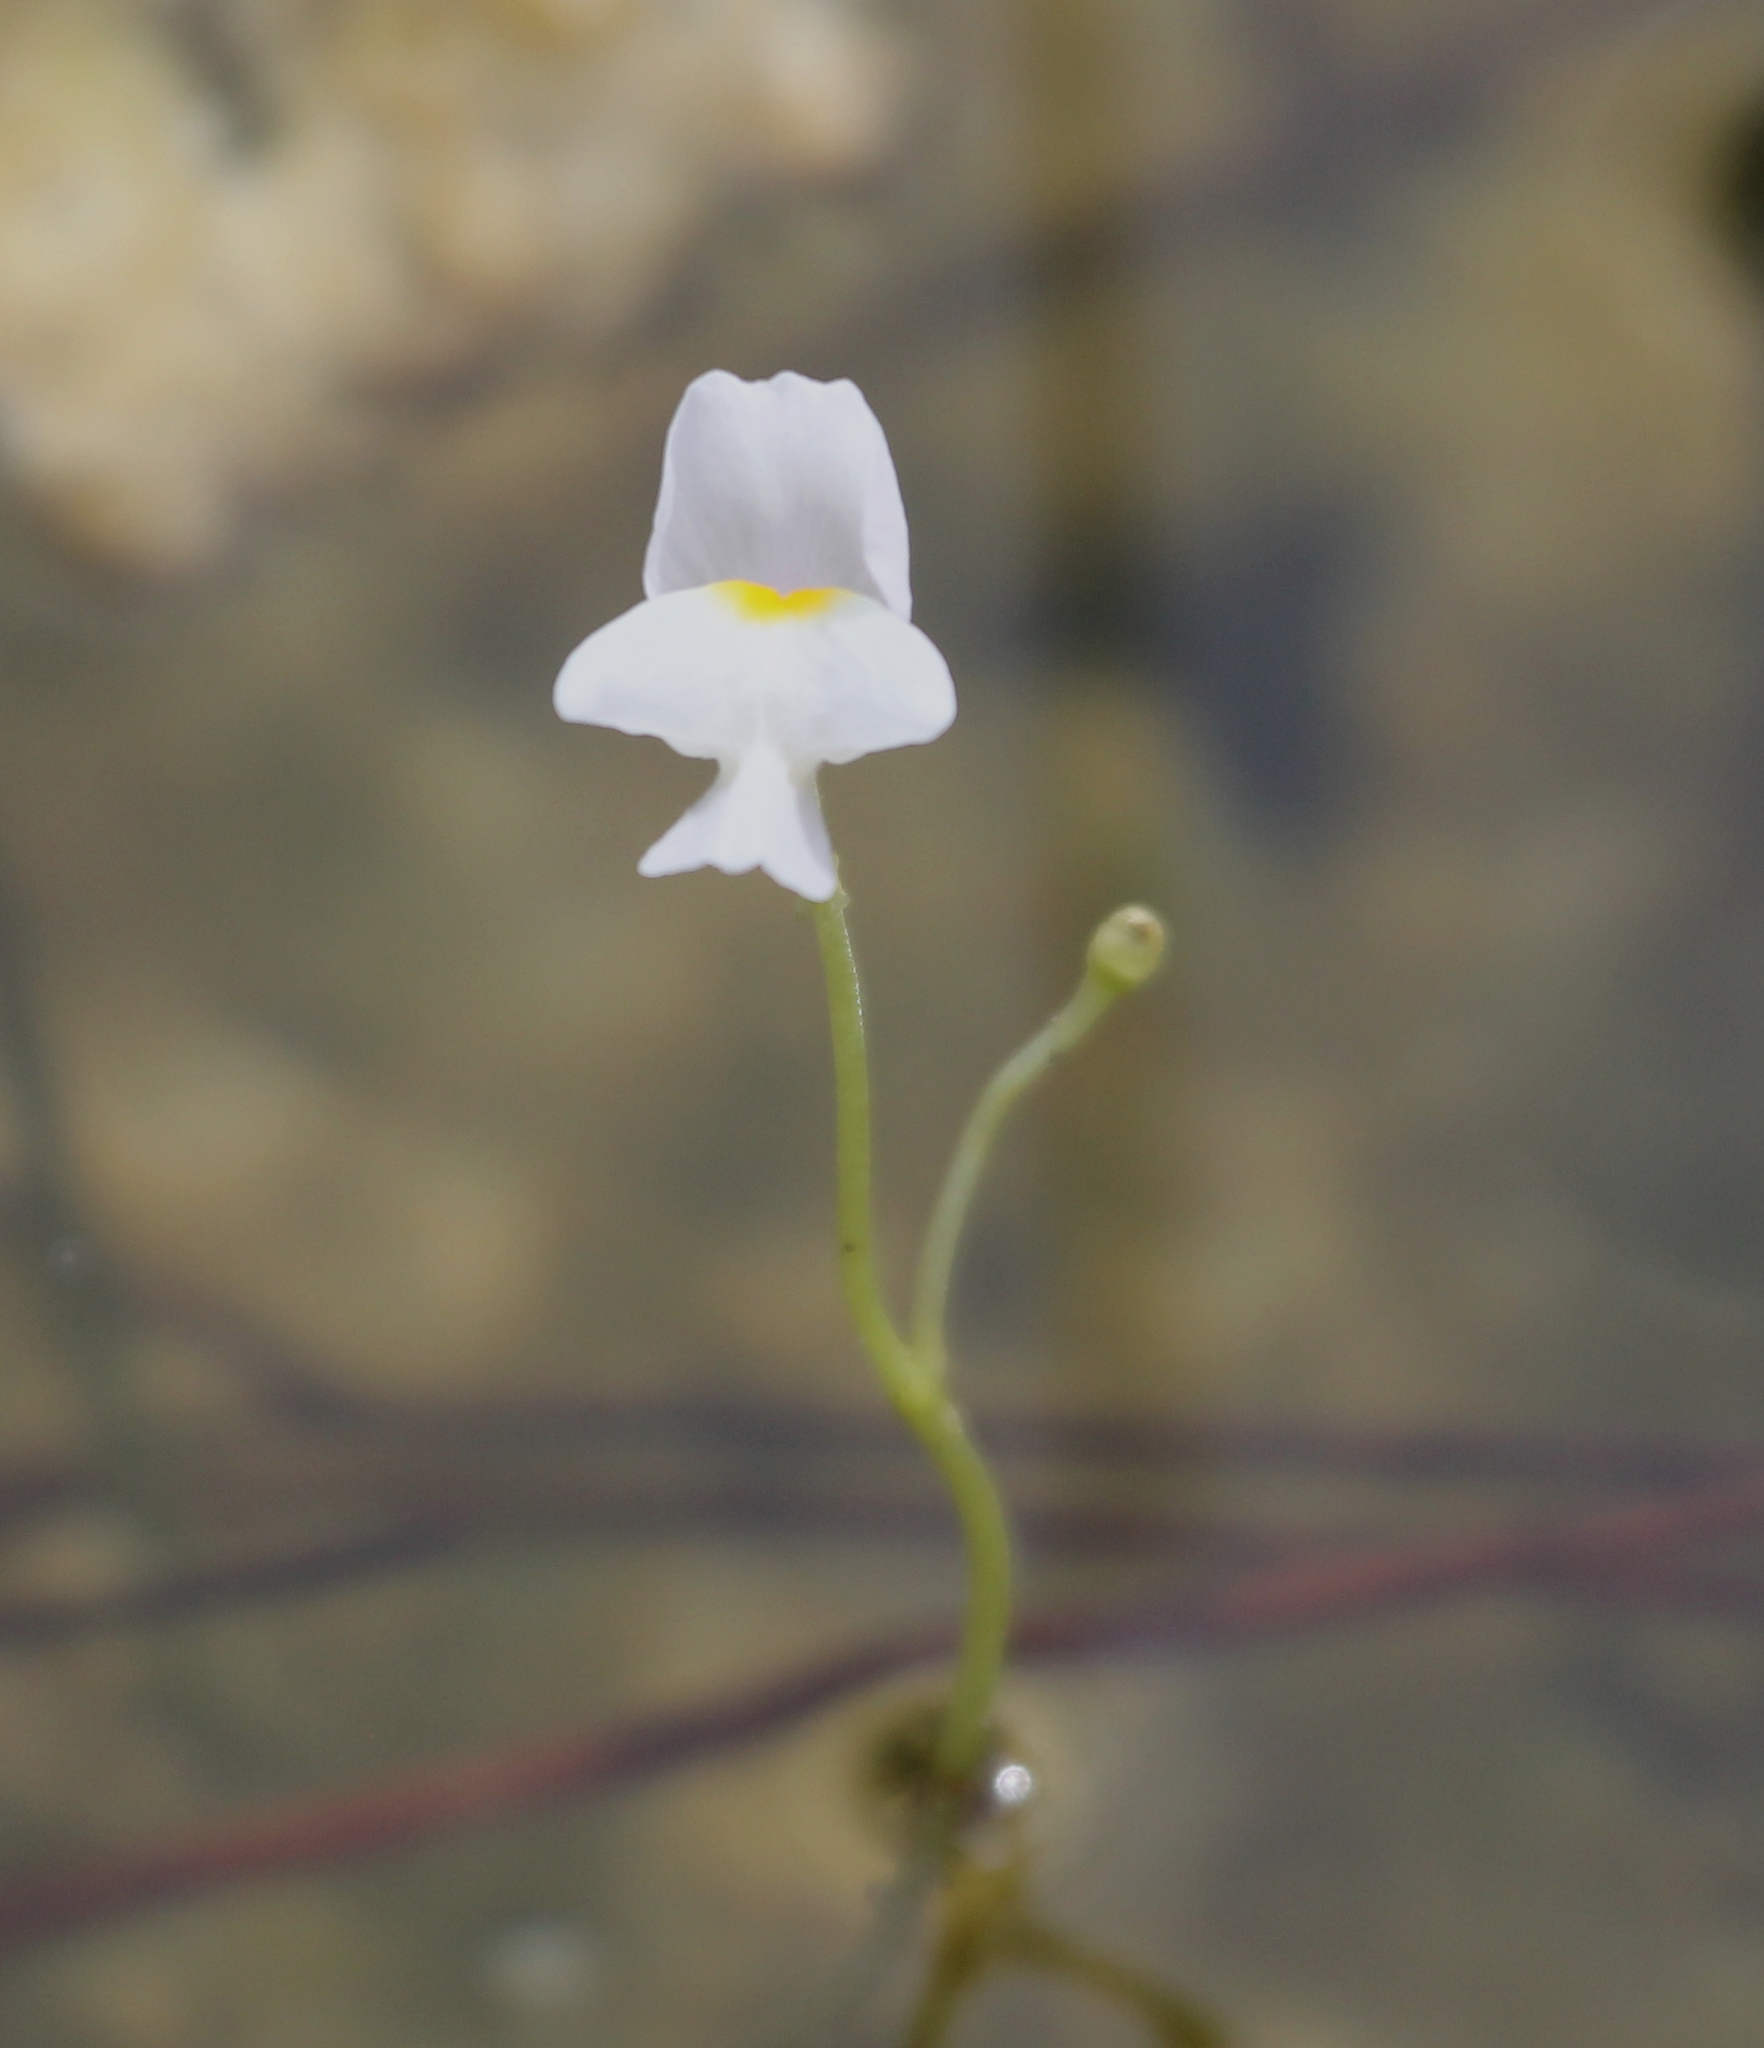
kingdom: Plantae
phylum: Tracheophyta
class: Magnoliopsida
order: Lamiales
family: Lentibulariaceae
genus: Utricularia
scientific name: Utricularia purpurea
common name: Eastern purple bladderwort
